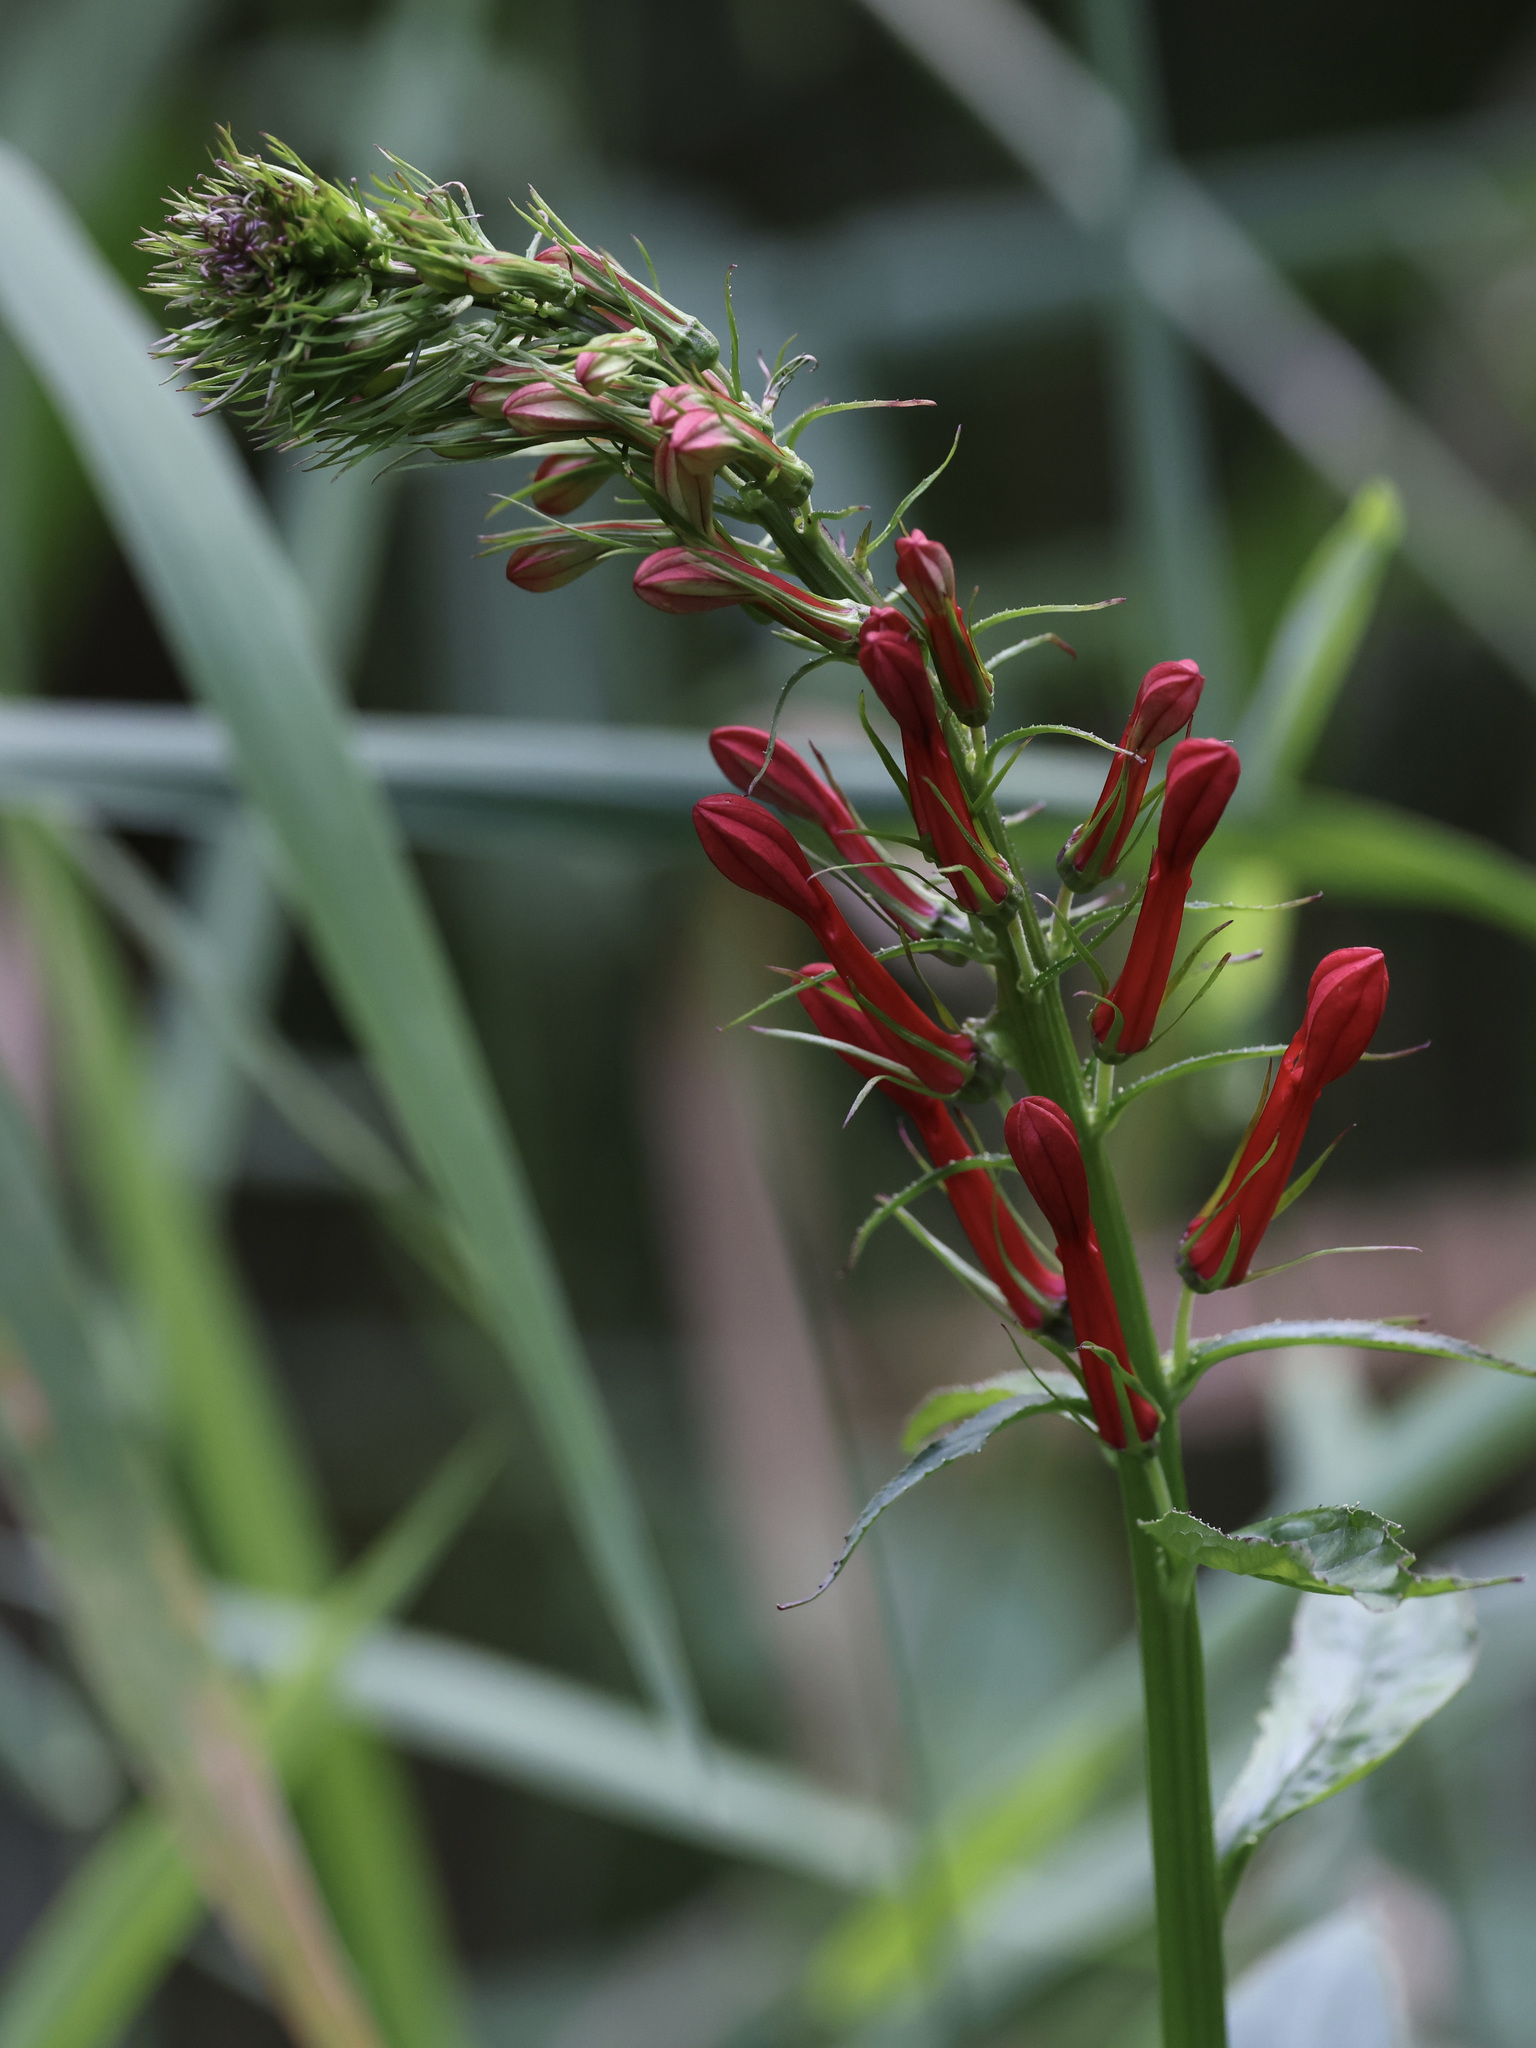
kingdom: Plantae
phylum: Tracheophyta
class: Magnoliopsida
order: Asterales
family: Campanulaceae
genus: Lobelia
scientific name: Lobelia cardinalis
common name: Cardinal flower
